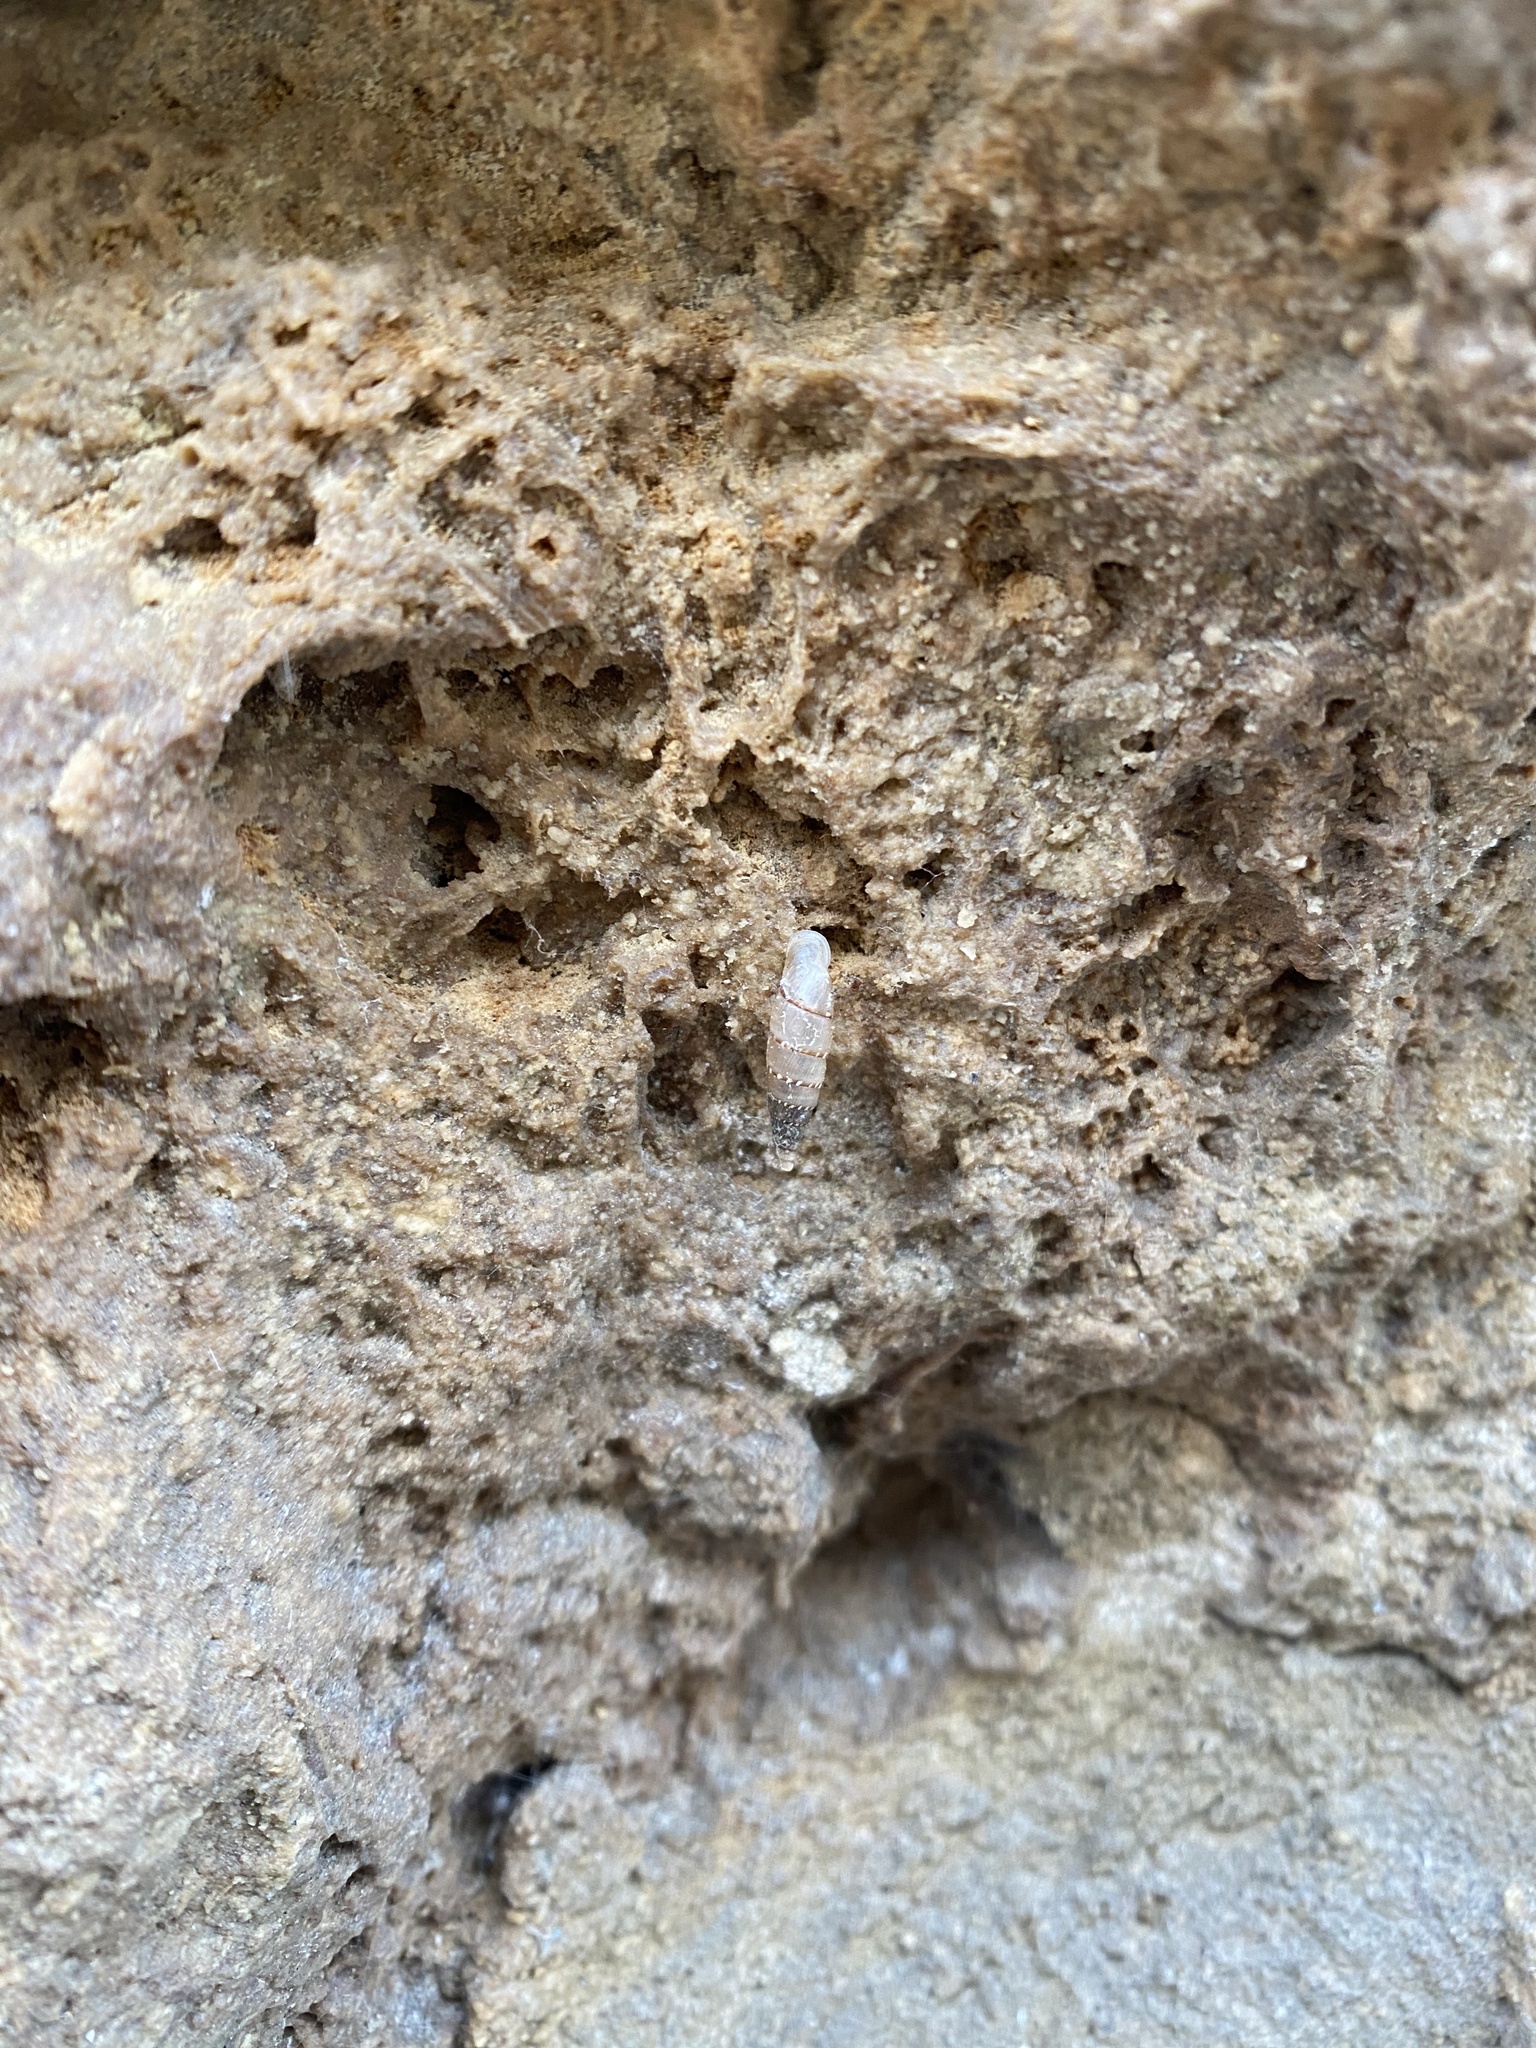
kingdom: Animalia
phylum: Mollusca
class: Gastropoda
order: Stylommatophora
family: Clausiliidae
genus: Papillifera
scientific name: Papillifera papillaris
